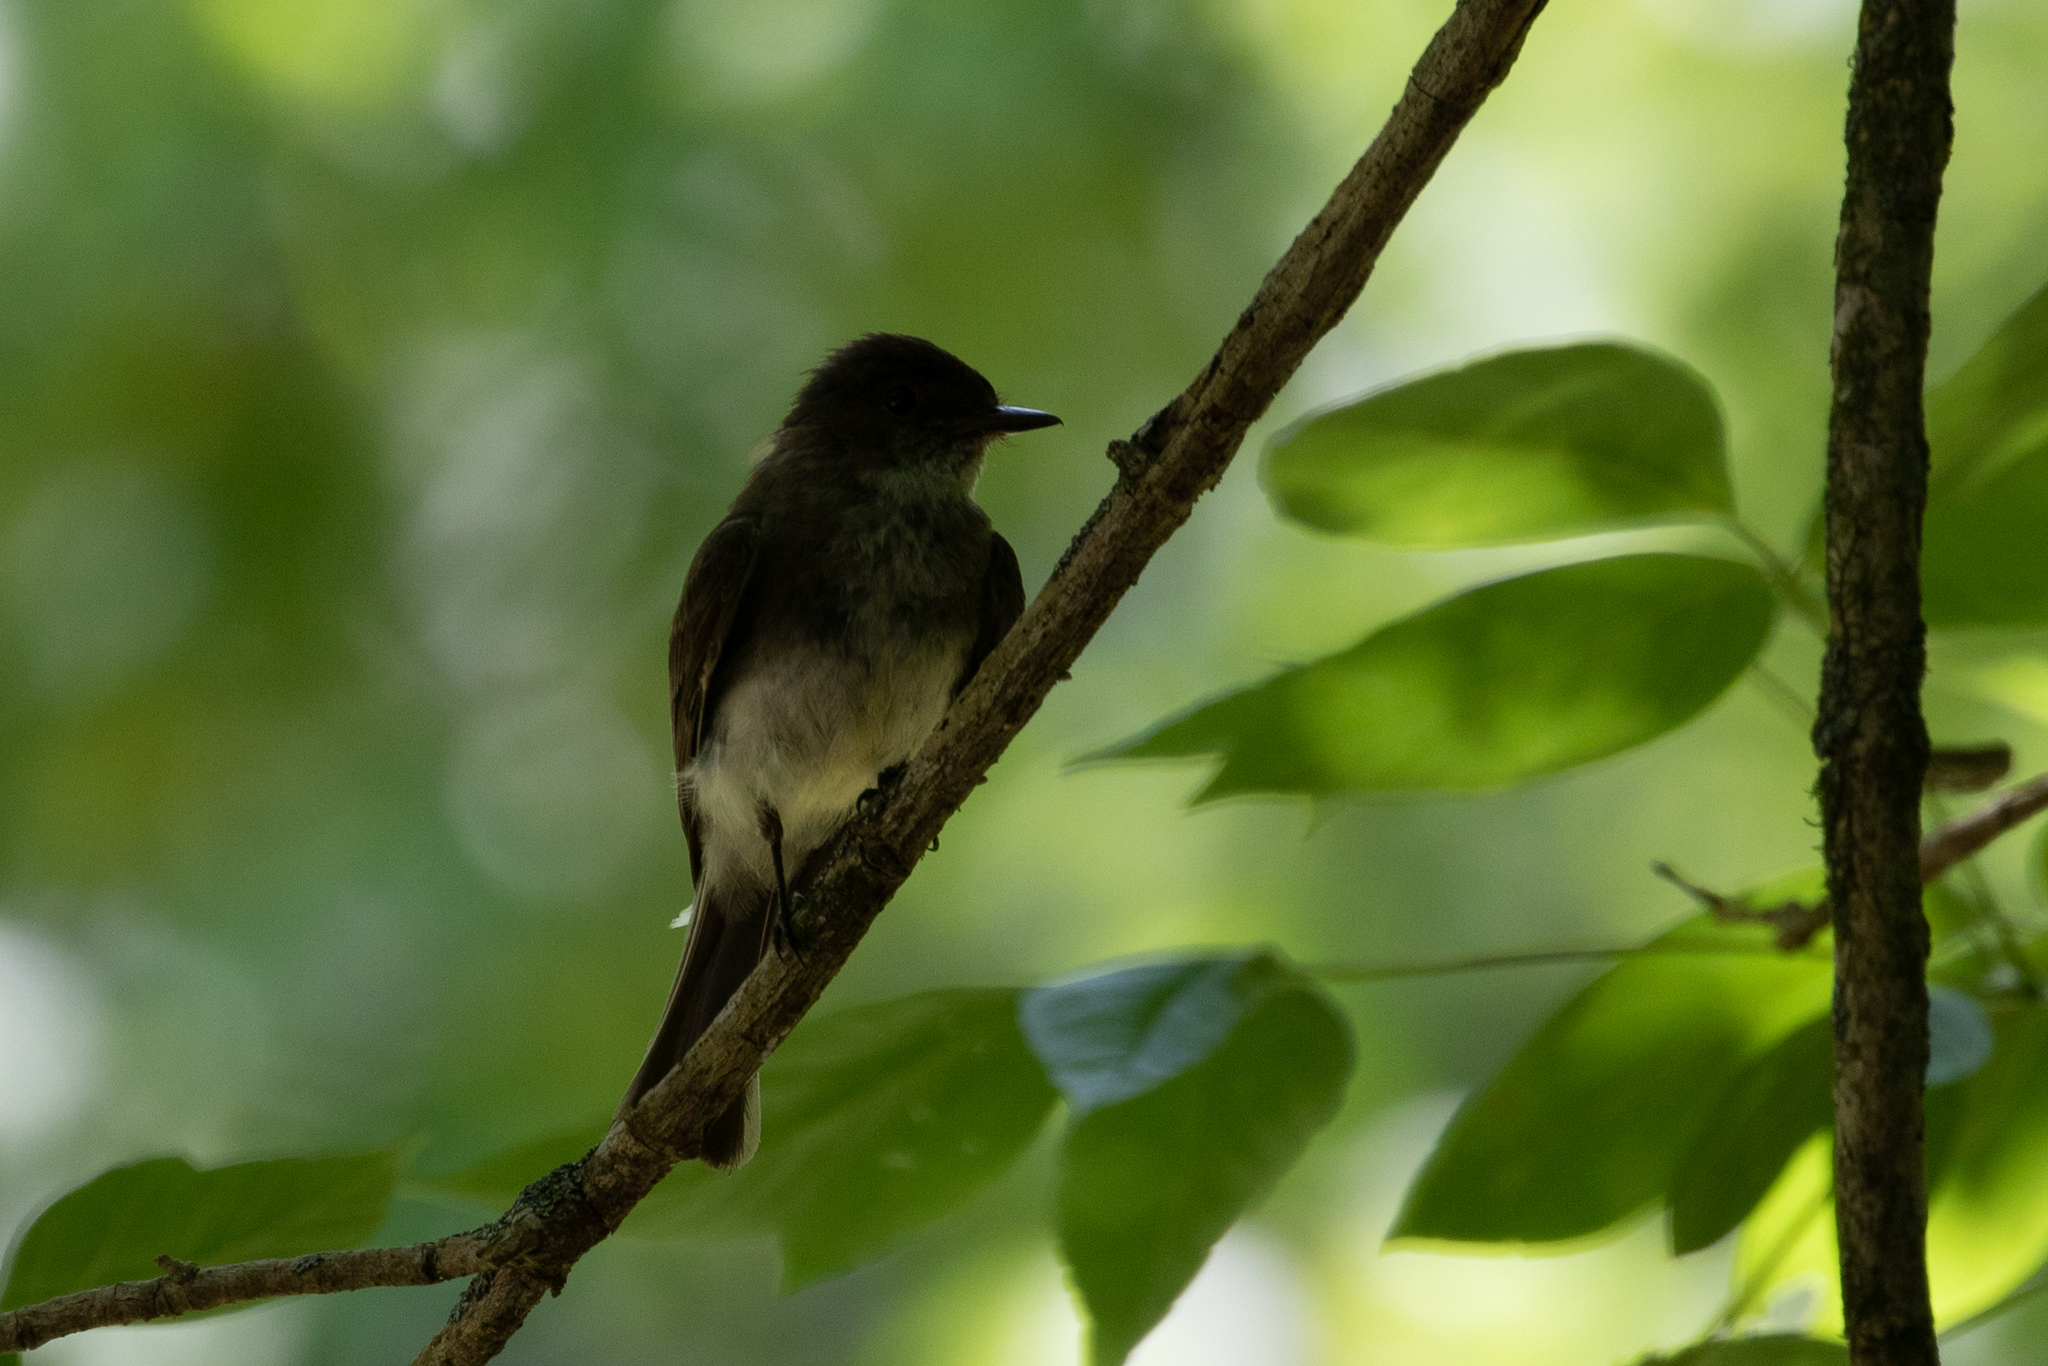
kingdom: Animalia
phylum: Chordata
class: Aves
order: Passeriformes
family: Tyrannidae
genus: Sayornis
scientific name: Sayornis phoebe
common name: Eastern phoebe
